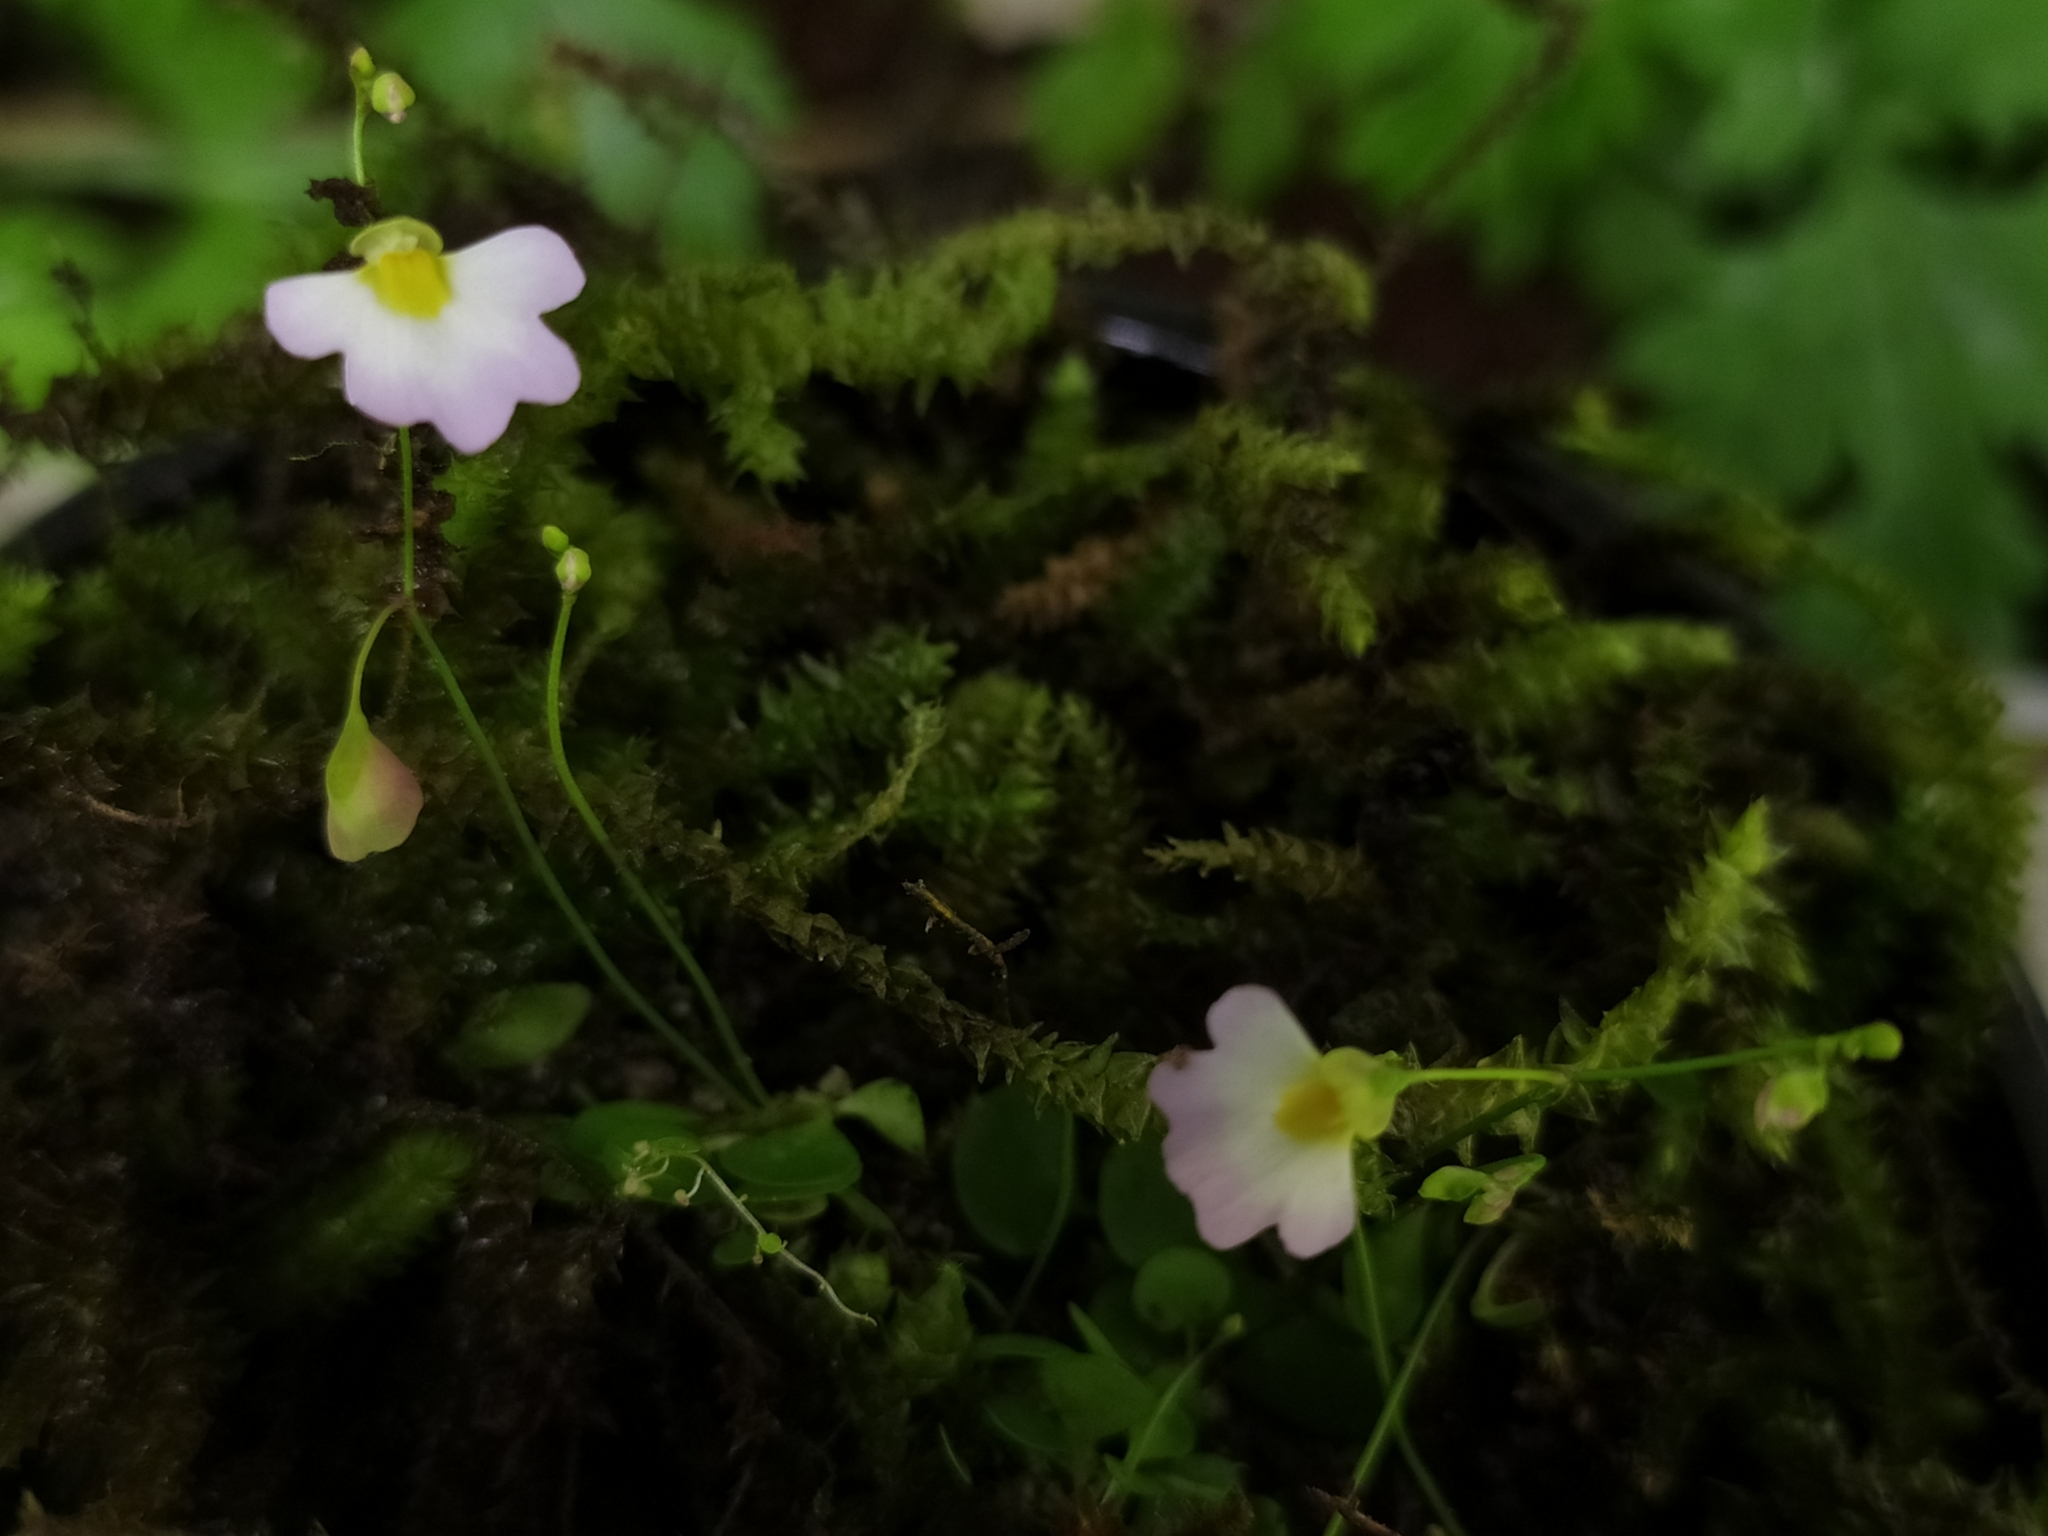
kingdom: Plantae
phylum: Tracheophyta
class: Magnoliopsida
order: Lamiales
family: Lentibulariaceae
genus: Utricularia
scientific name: Utricularia striatula
